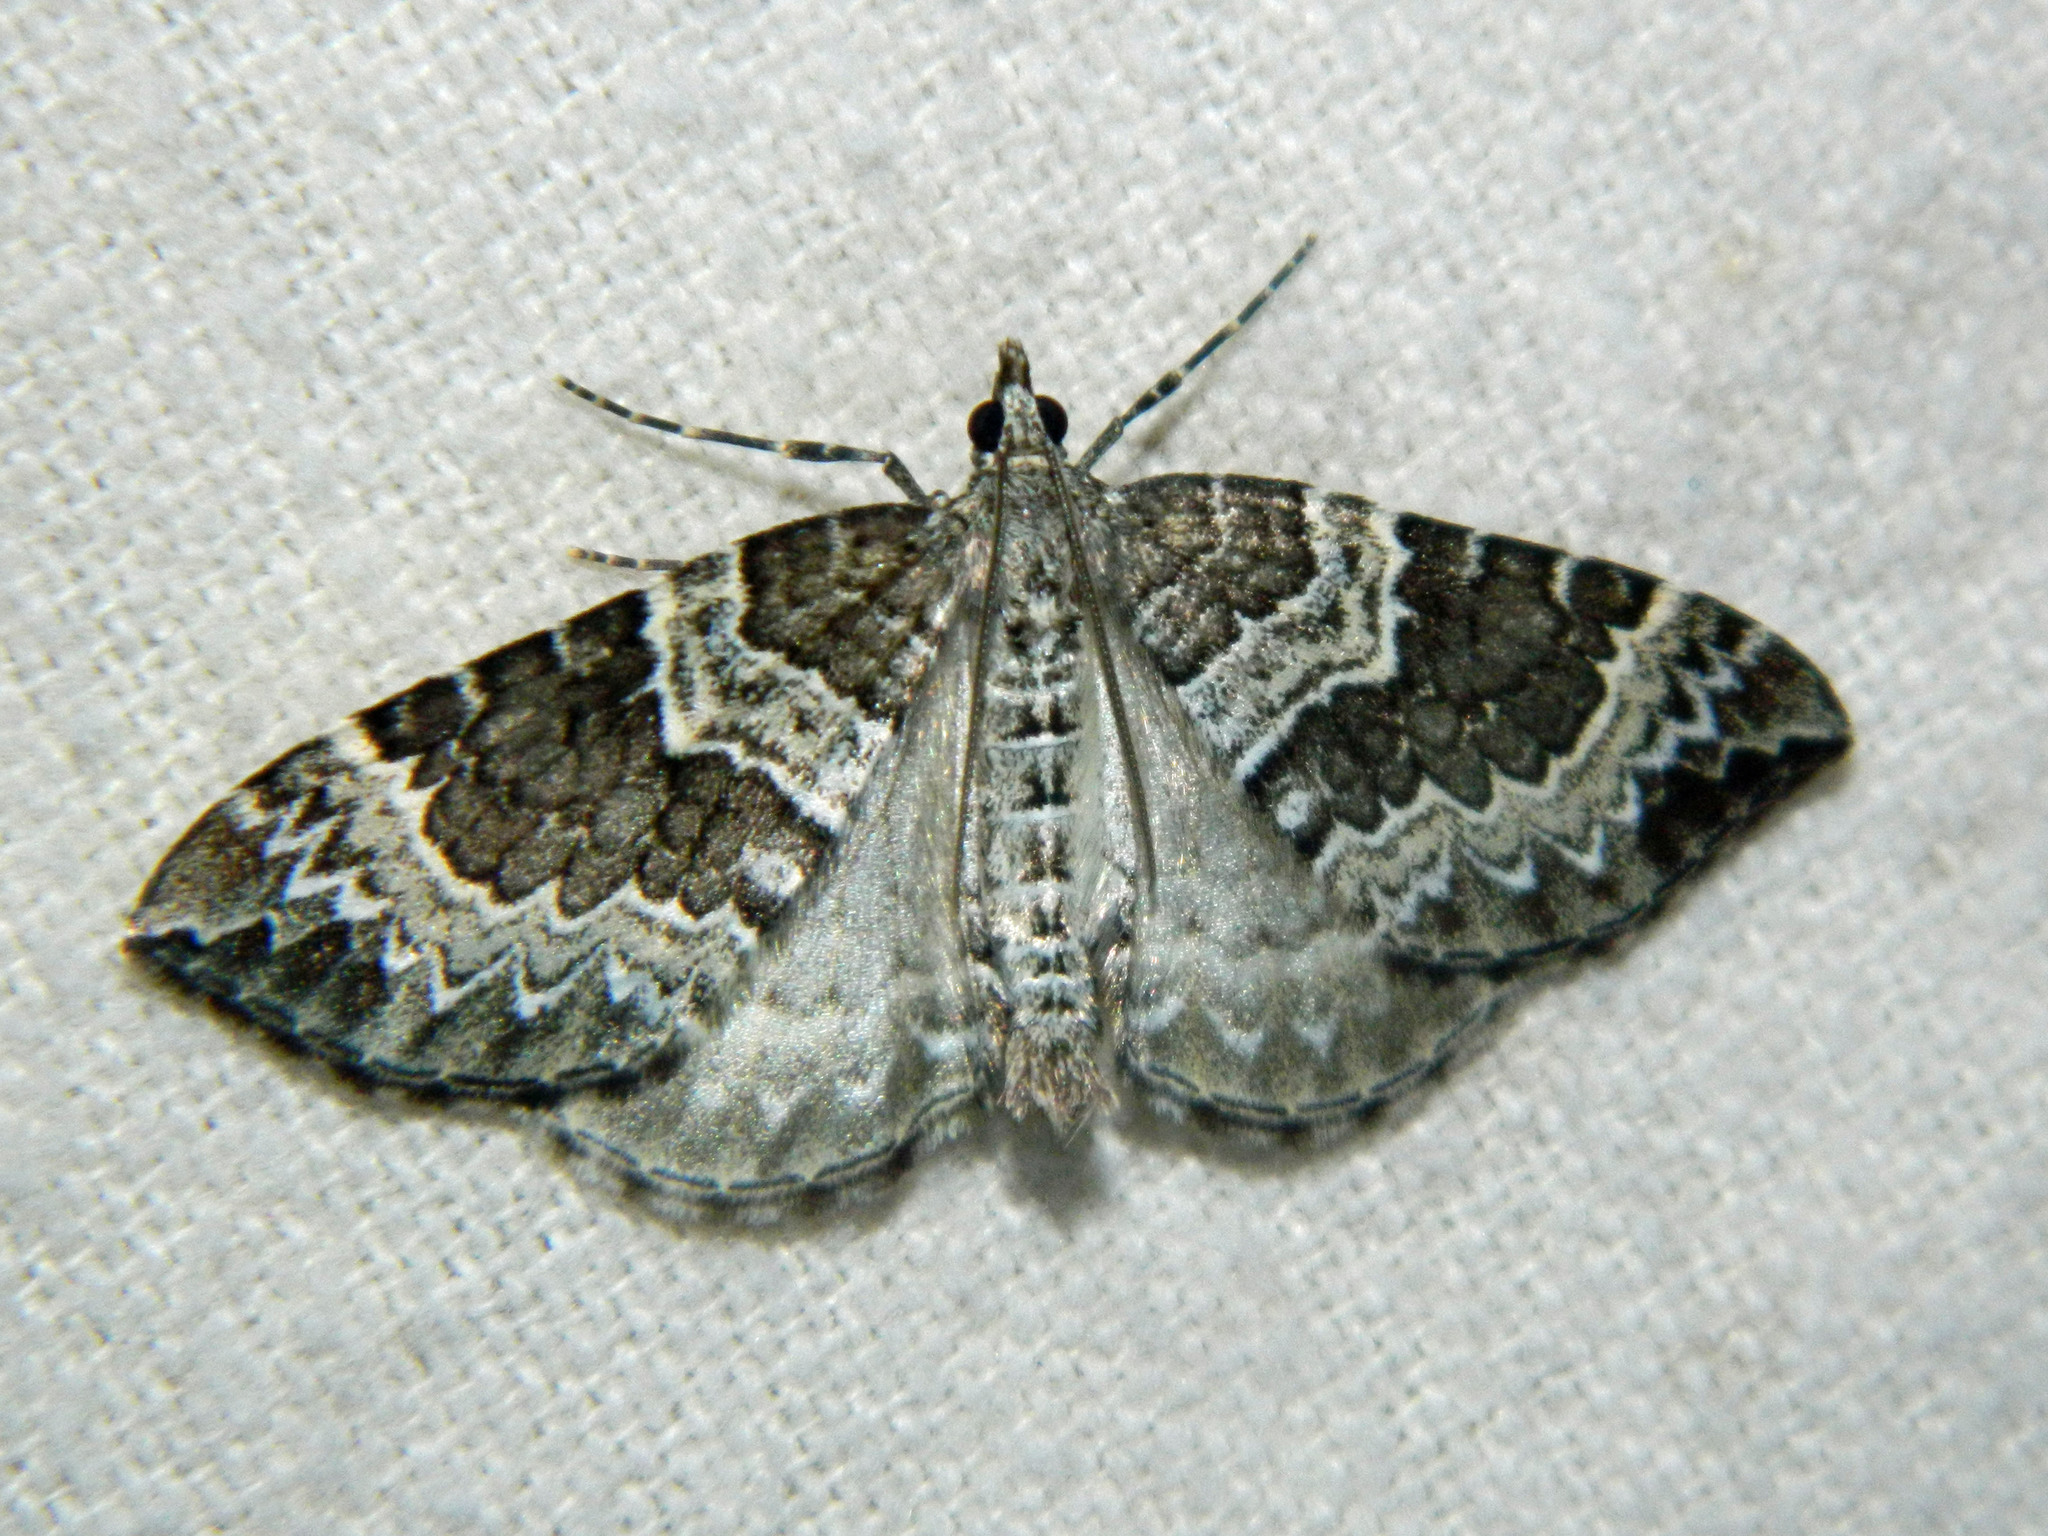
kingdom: Animalia
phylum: Arthropoda
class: Insecta
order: Lepidoptera
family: Geometridae
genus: Eulithis
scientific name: Eulithis explanata
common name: White eulithis
